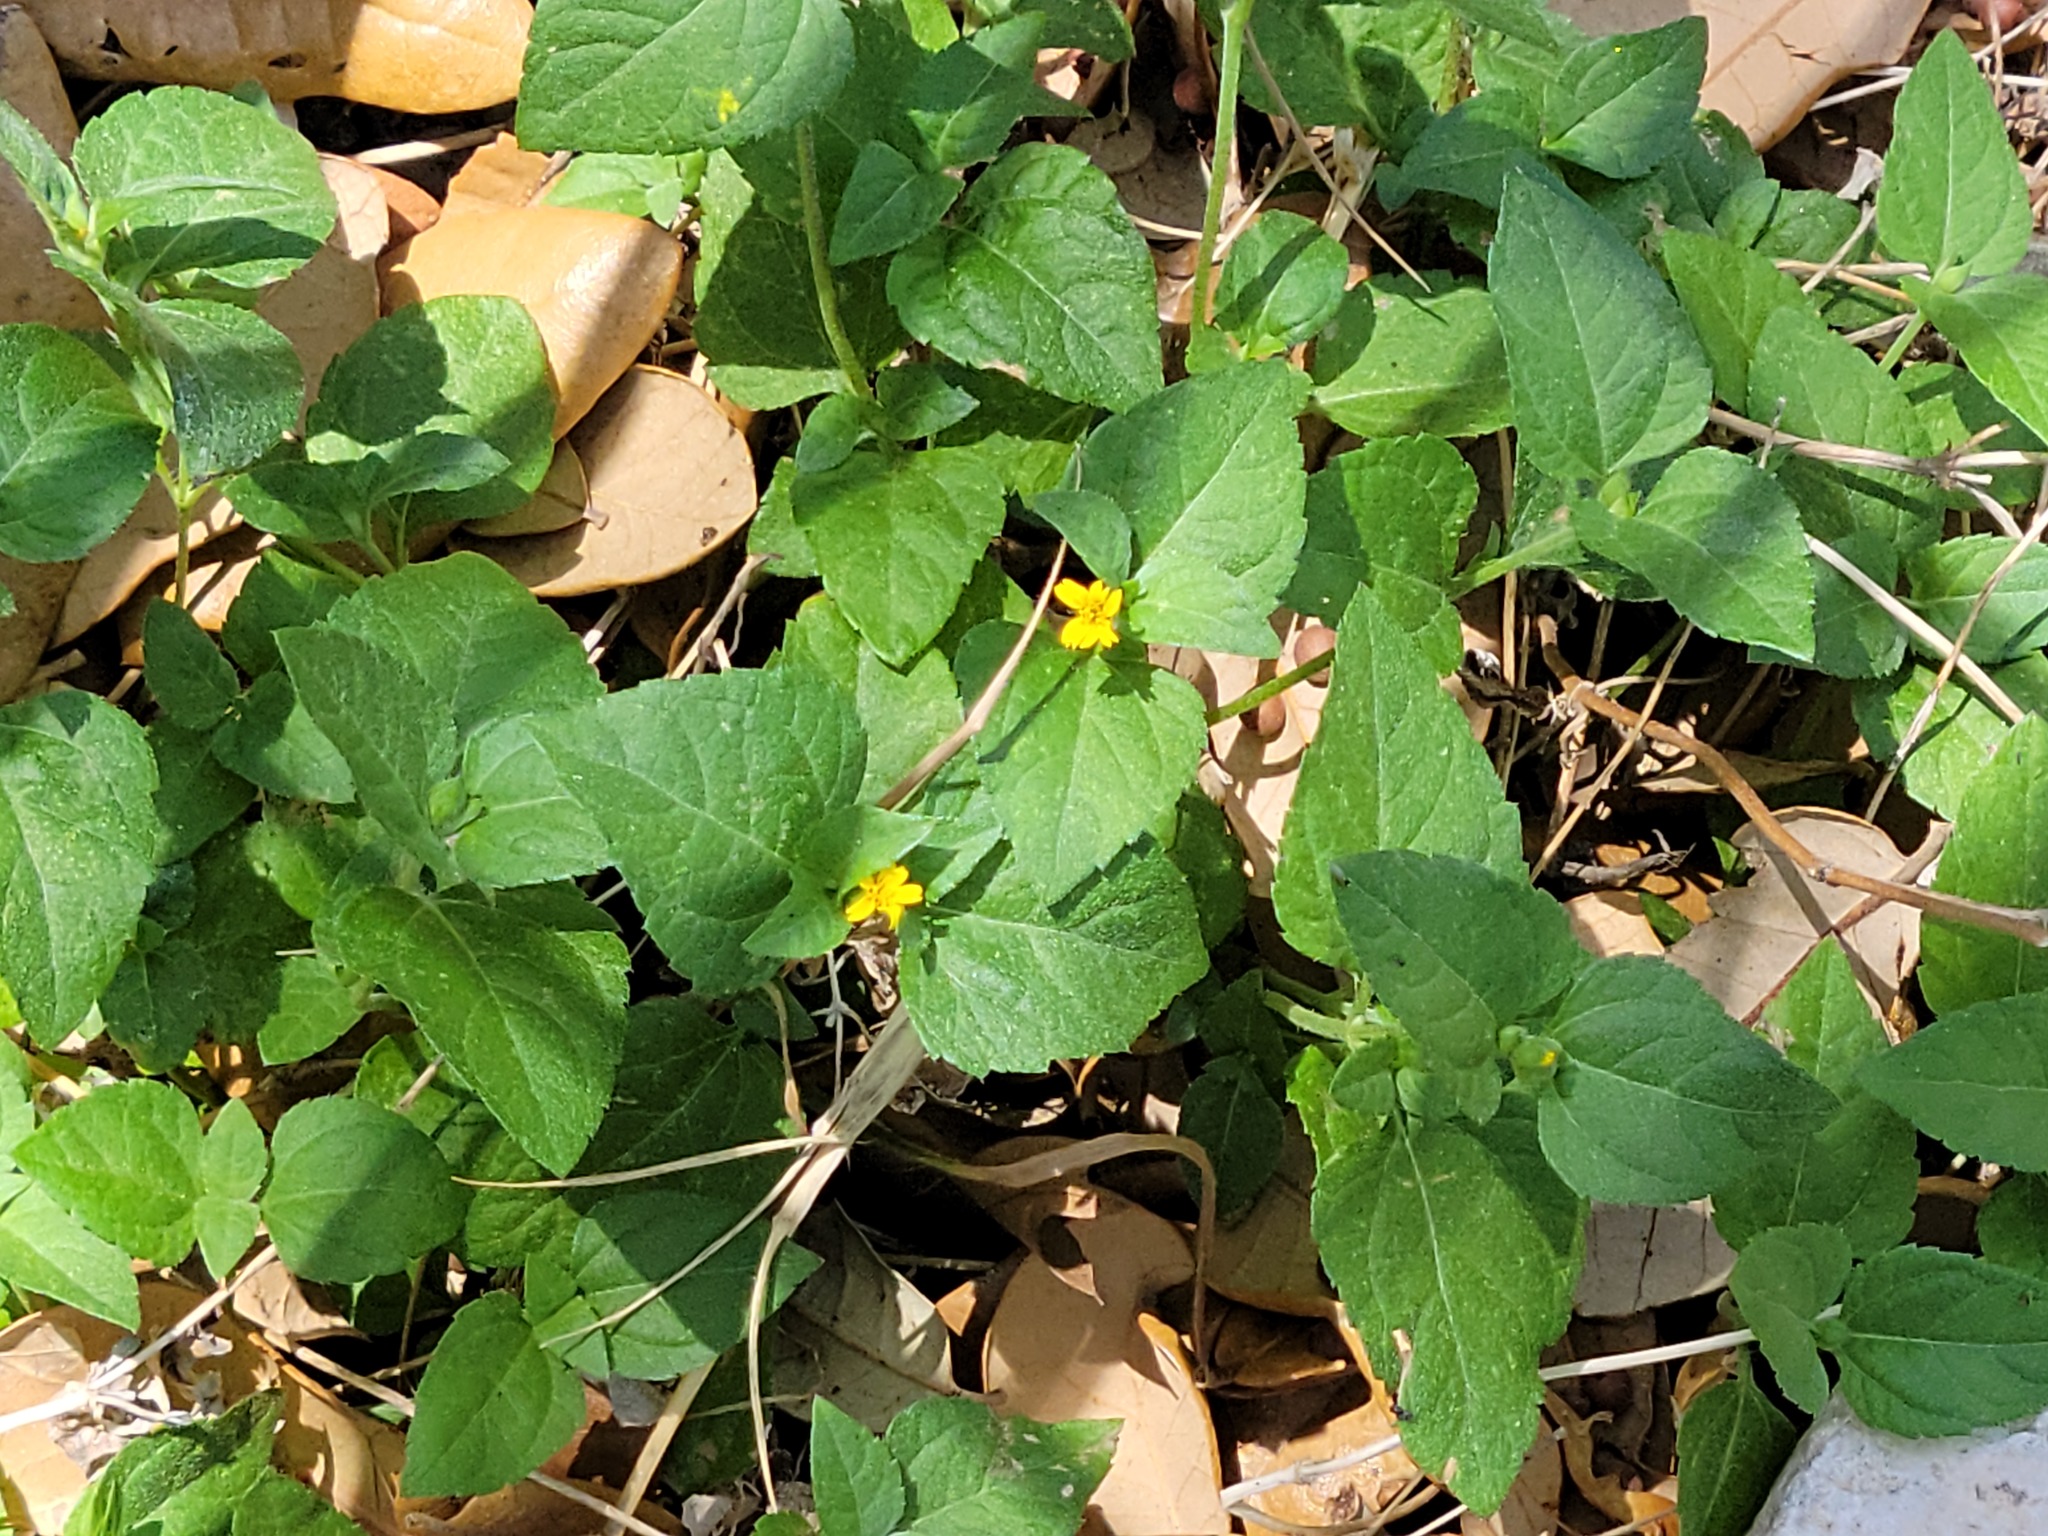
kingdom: Plantae
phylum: Tracheophyta
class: Magnoliopsida
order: Asterales
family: Asteraceae
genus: Calyptocarpus
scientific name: Calyptocarpus vialis
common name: Straggler daisy
